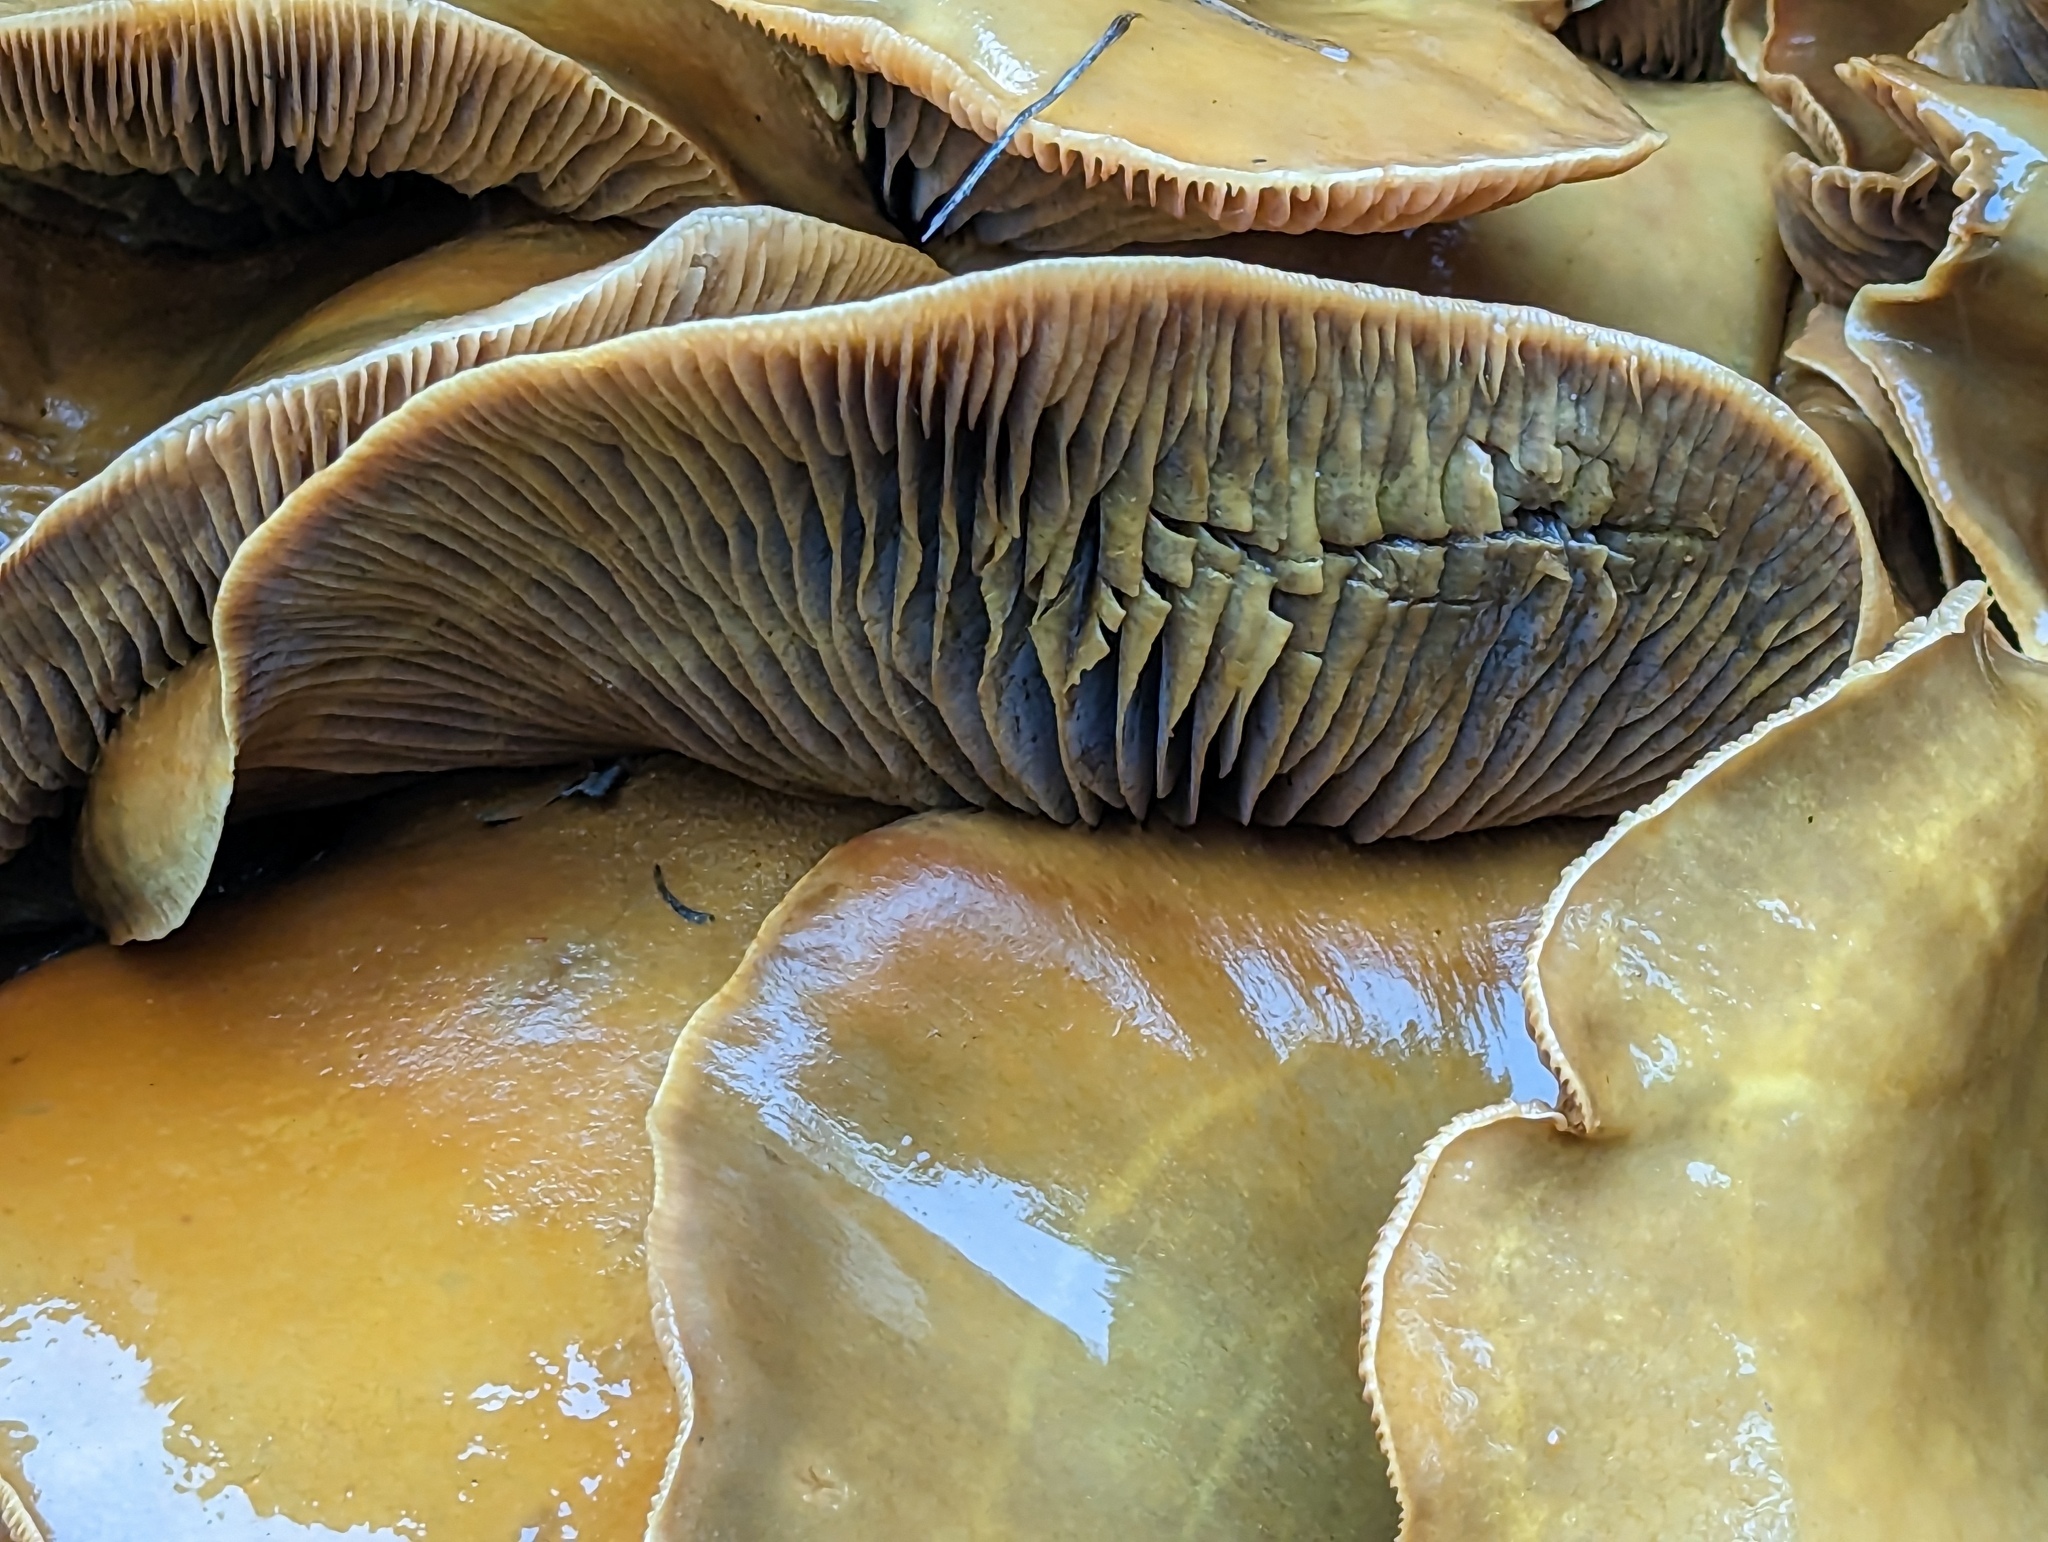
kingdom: Fungi
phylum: Basidiomycota
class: Agaricomycetes
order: Agaricales
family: Omphalotaceae
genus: Omphalotus
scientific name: Omphalotus olivascens
